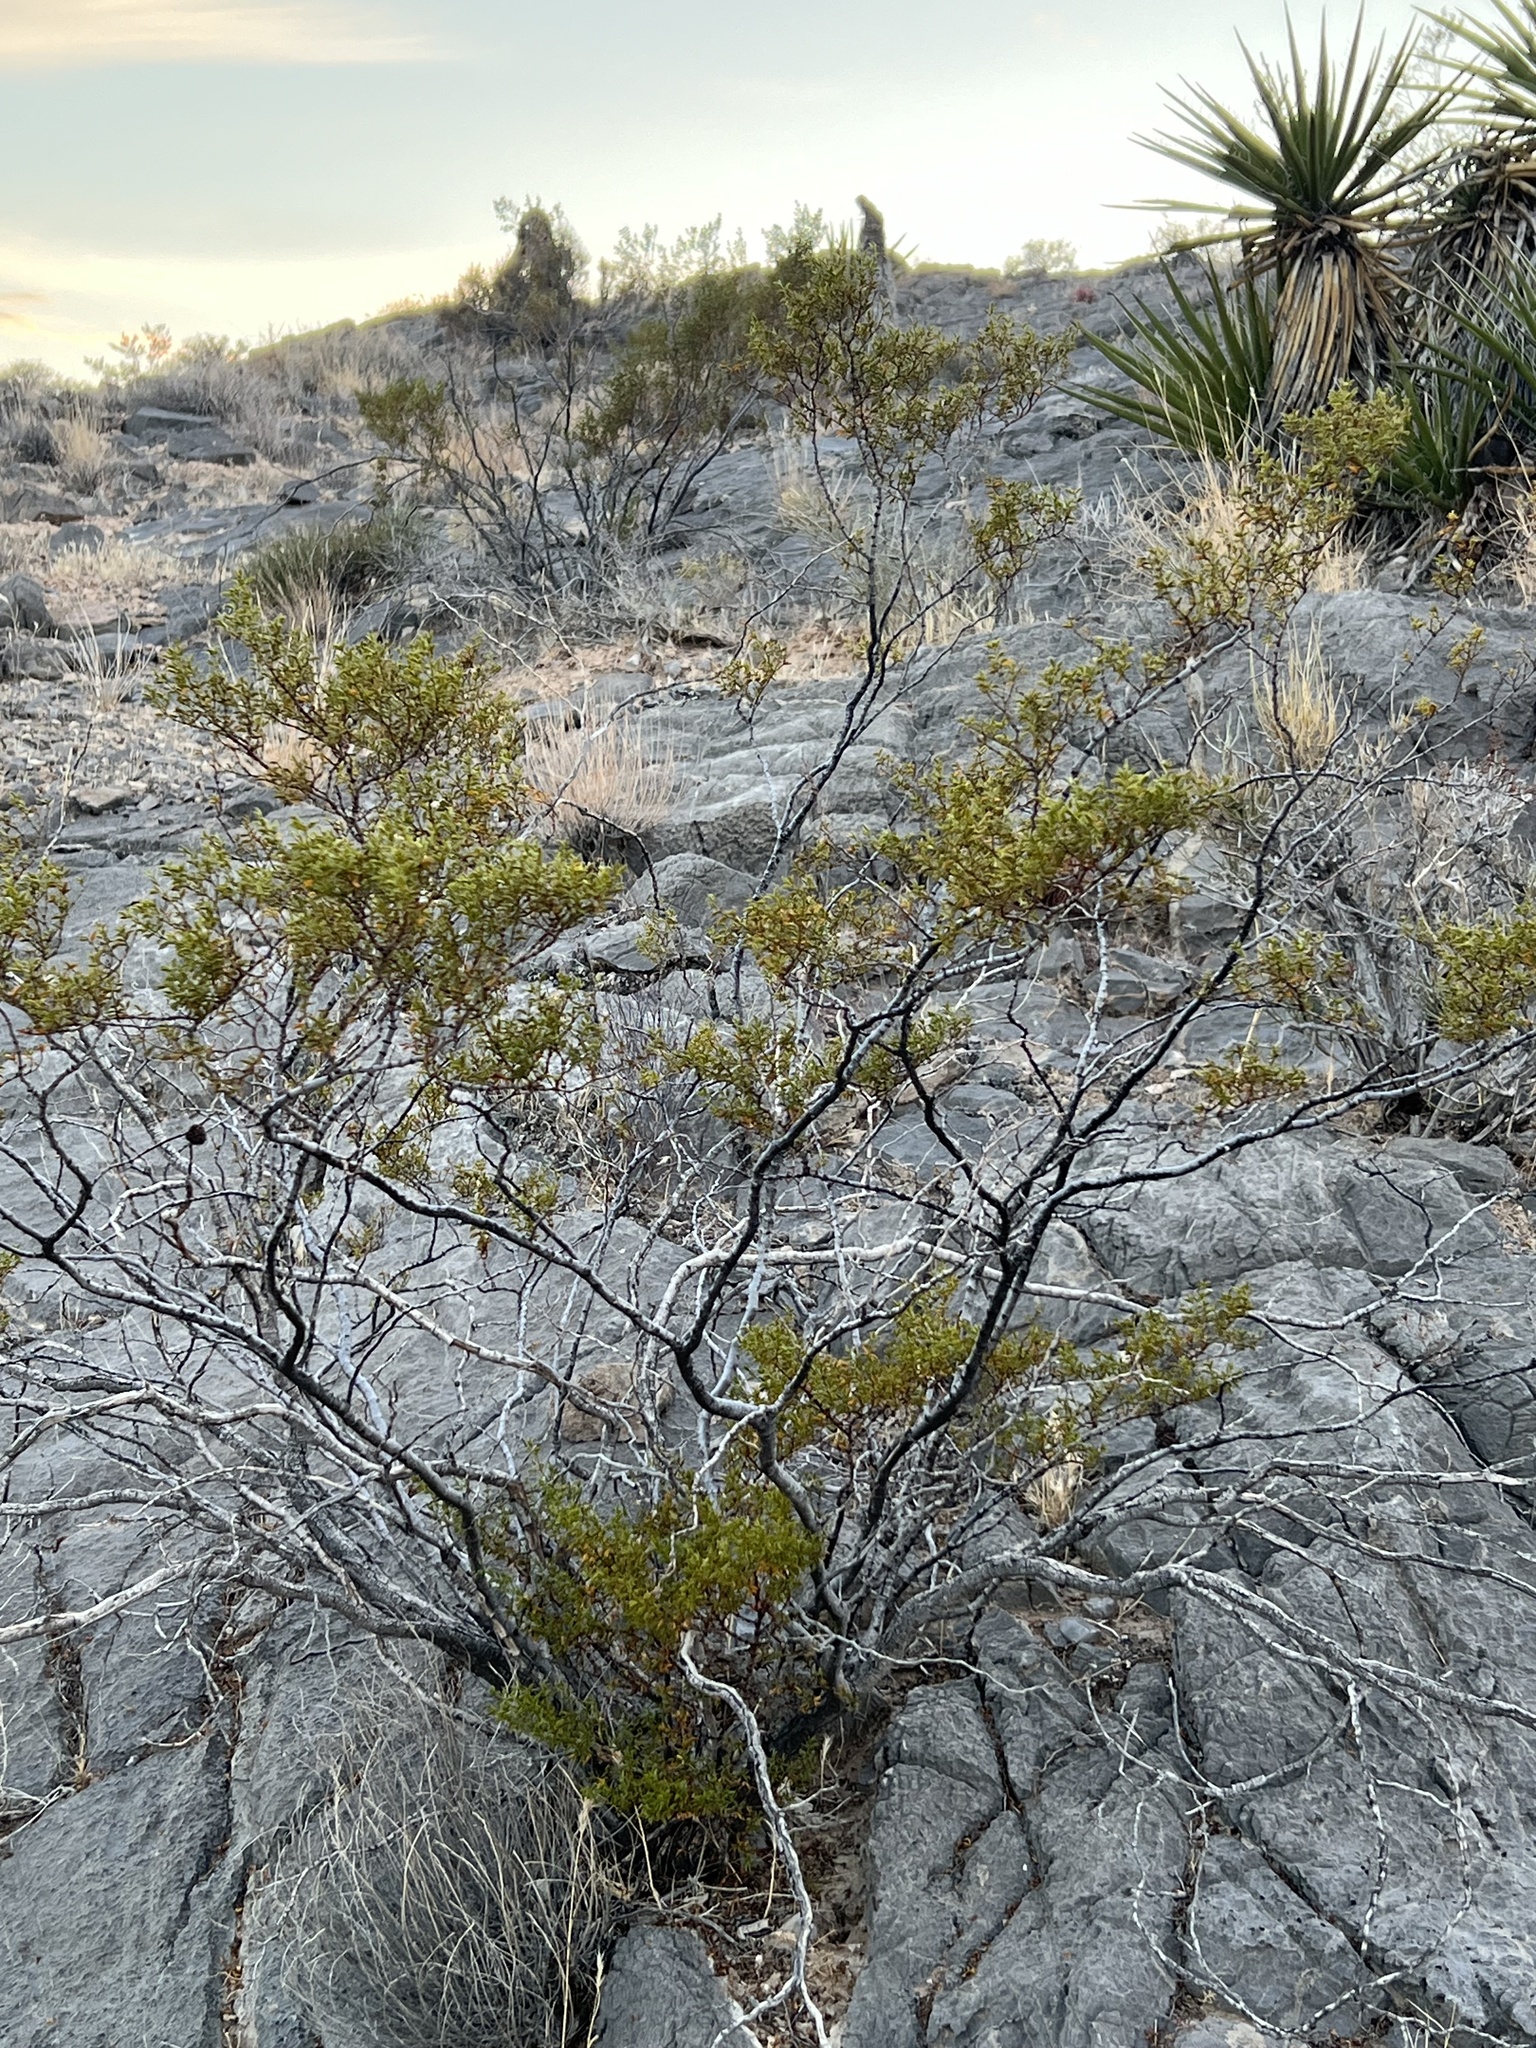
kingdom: Plantae
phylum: Tracheophyta
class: Magnoliopsida
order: Zygophyllales
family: Zygophyllaceae
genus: Larrea
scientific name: Larrea tridentata
